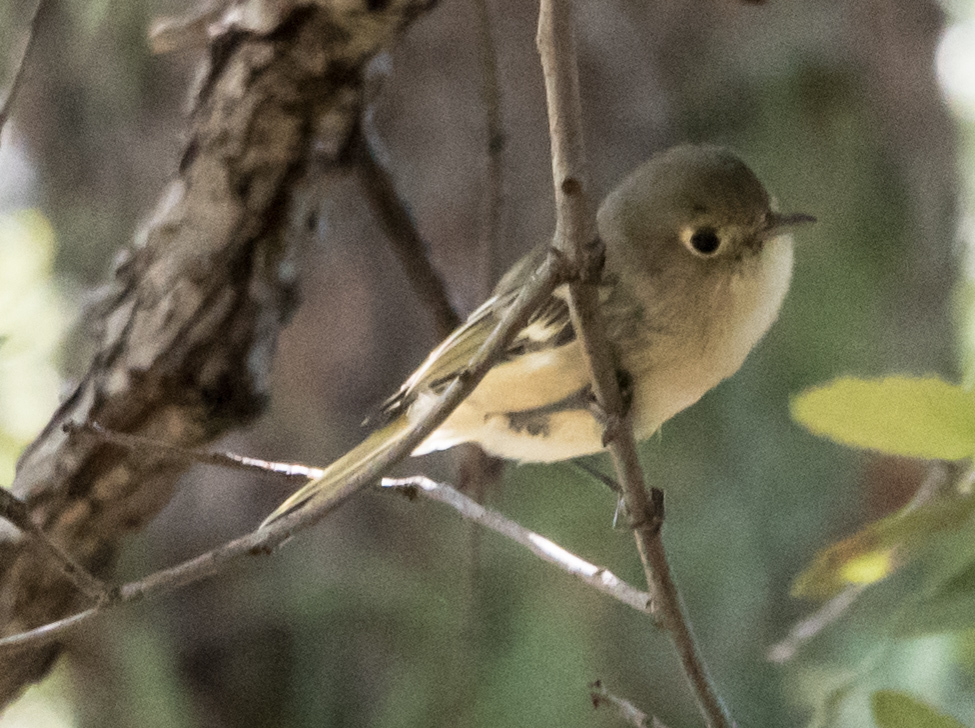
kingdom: Animalia
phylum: Chordata
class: Aves
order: Passeriformes
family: Vireonidae
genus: Vireo
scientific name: Vireo huttoni
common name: Hutton's vireo
